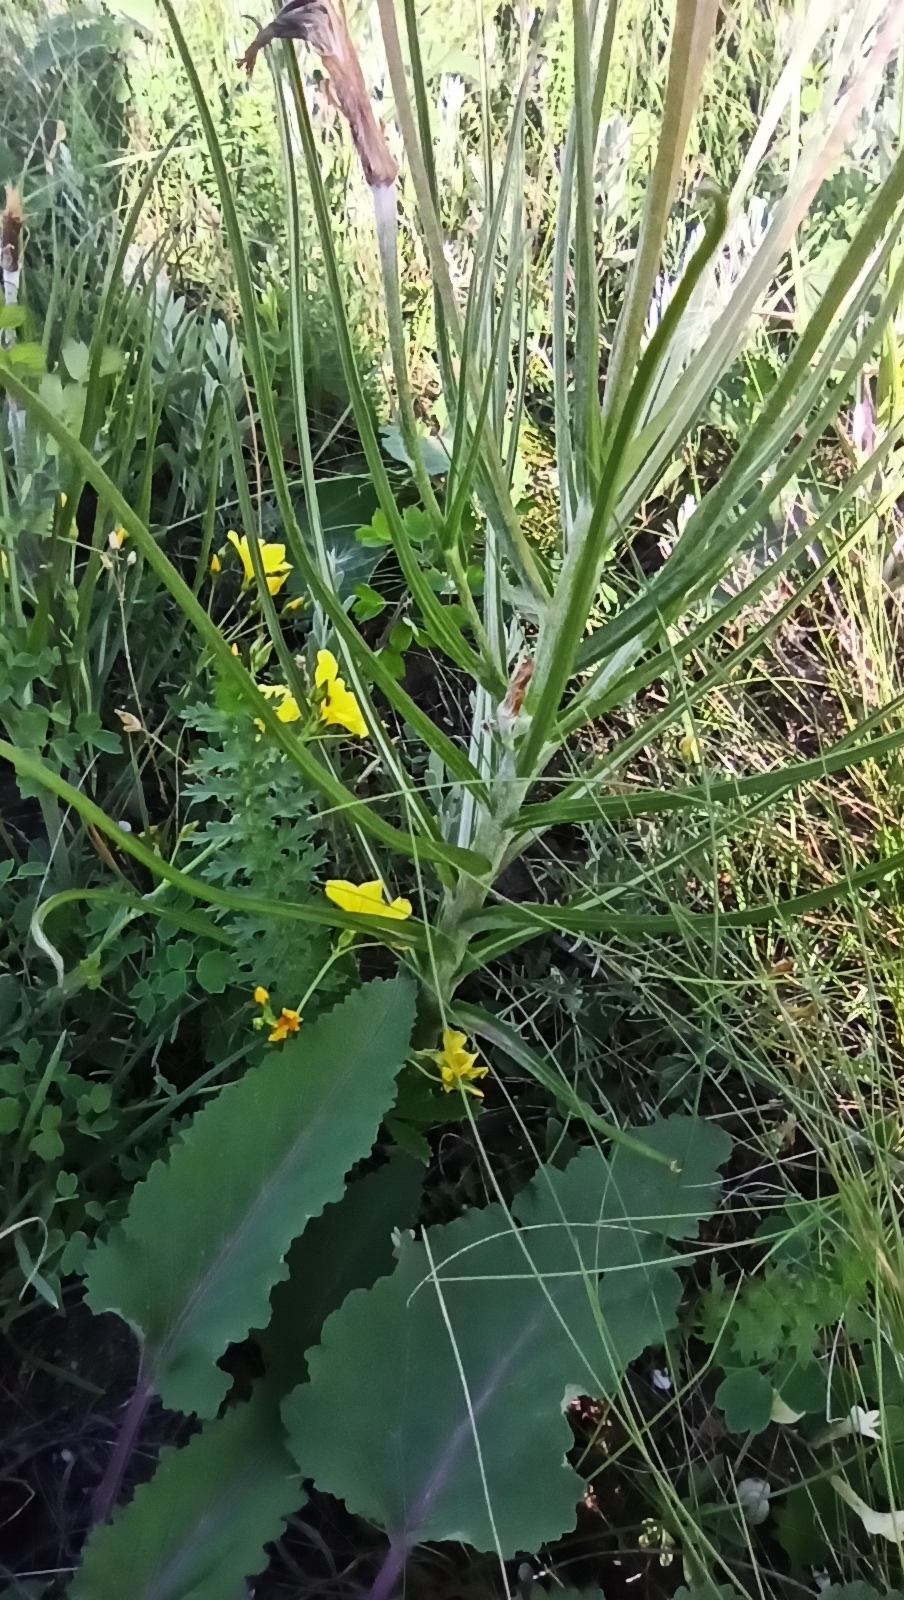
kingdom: Plantae
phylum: Tracheophyta
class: Magnoliopsida
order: Asterales
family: Asteraceae
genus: Candollea
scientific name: Candollea mollis
